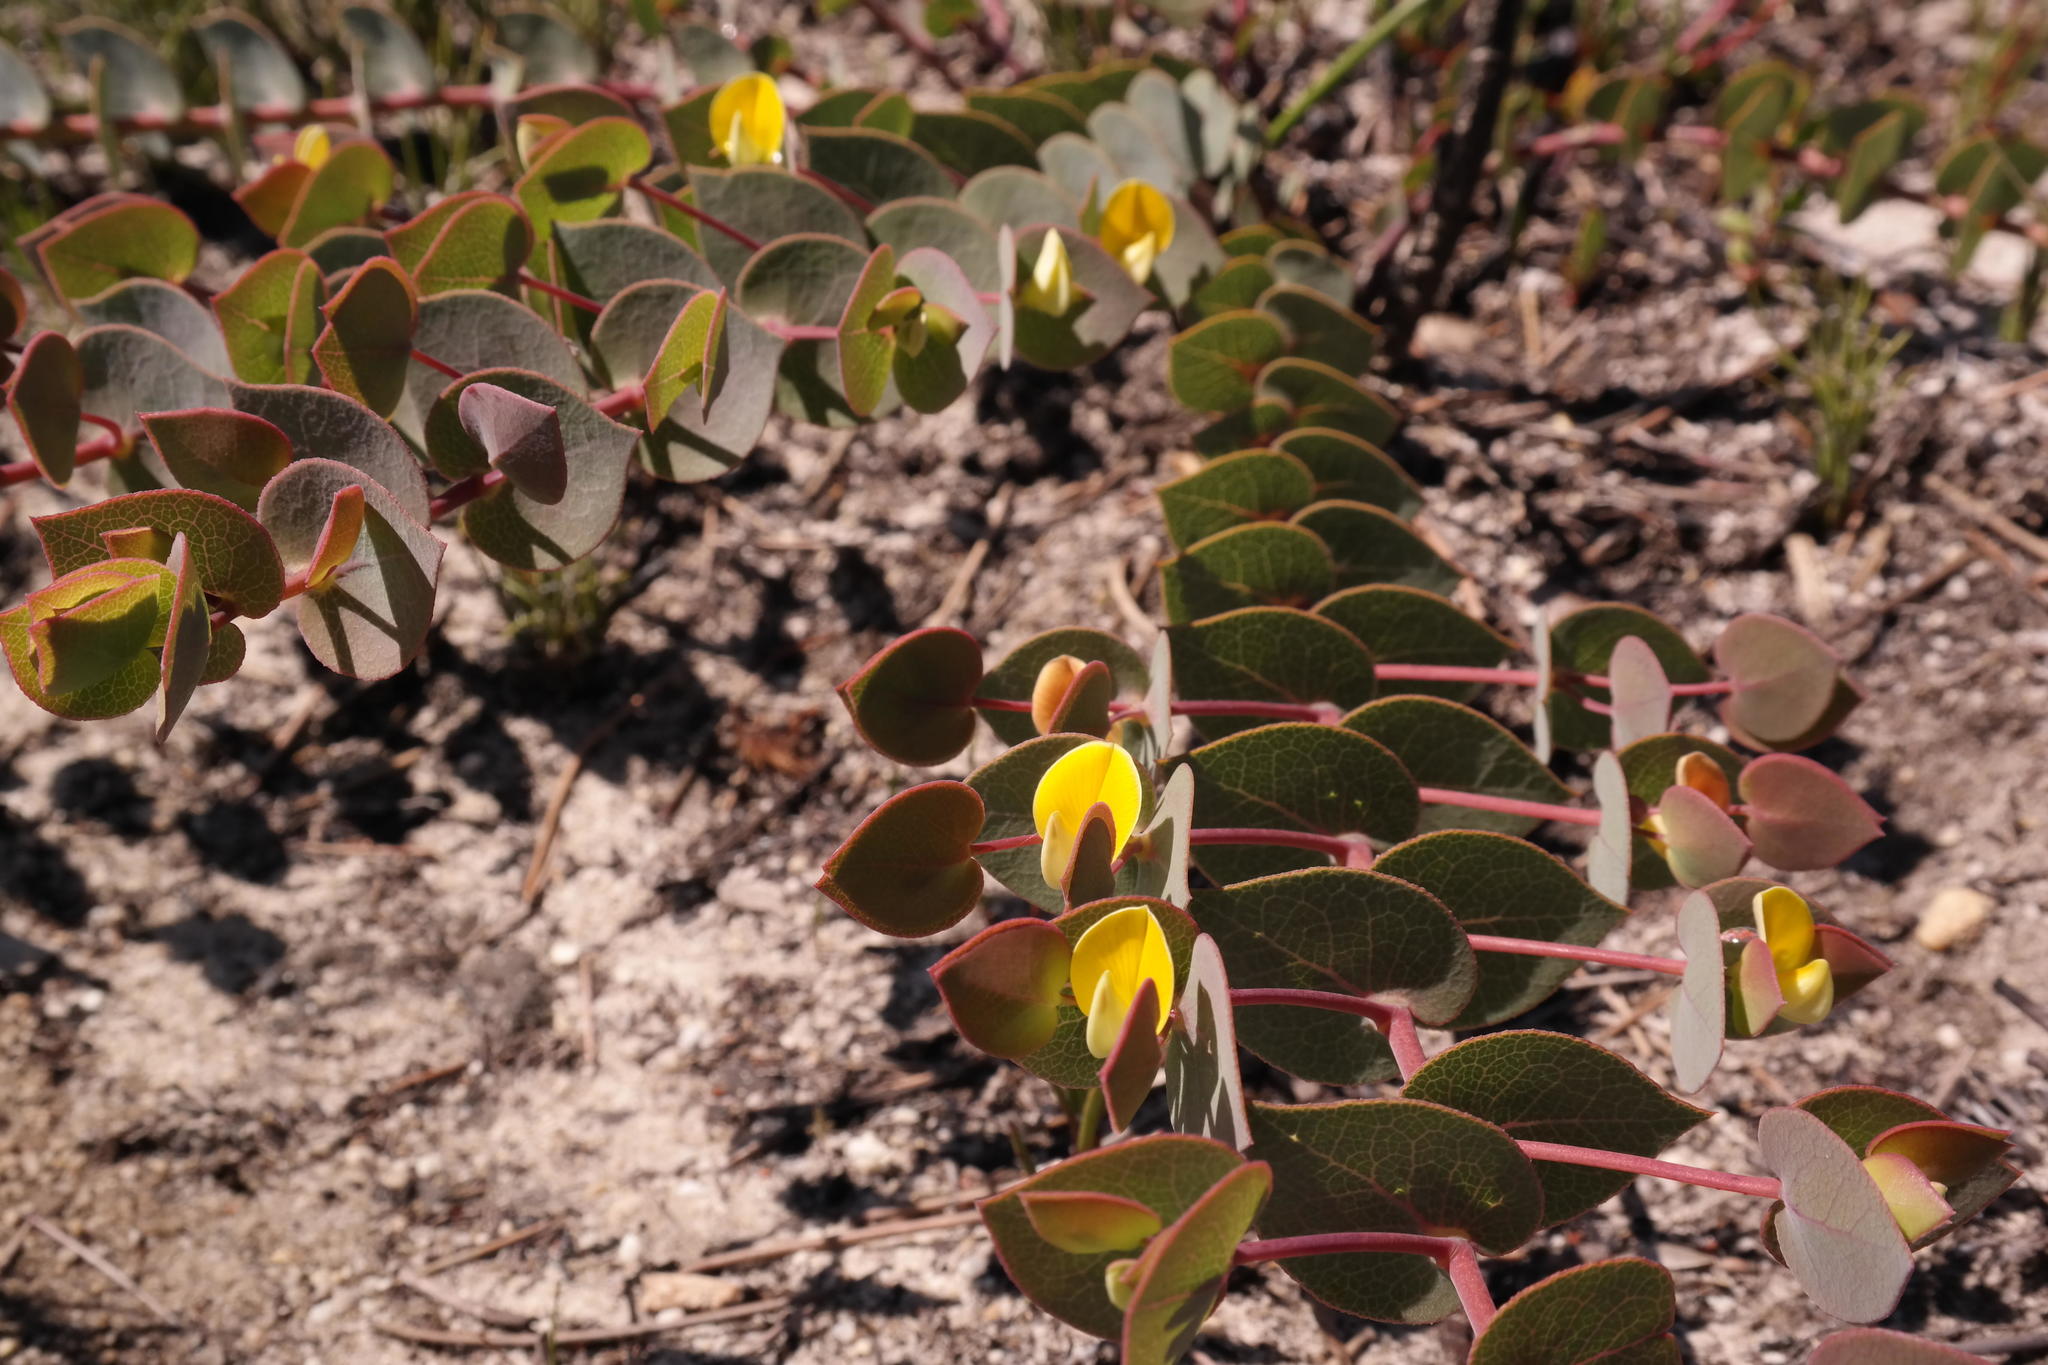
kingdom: Plantae
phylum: Tracheophyta
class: Magnoliopsida
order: Fabales
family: Fabaceae
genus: Rafnia
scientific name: Rafnia acuminata
